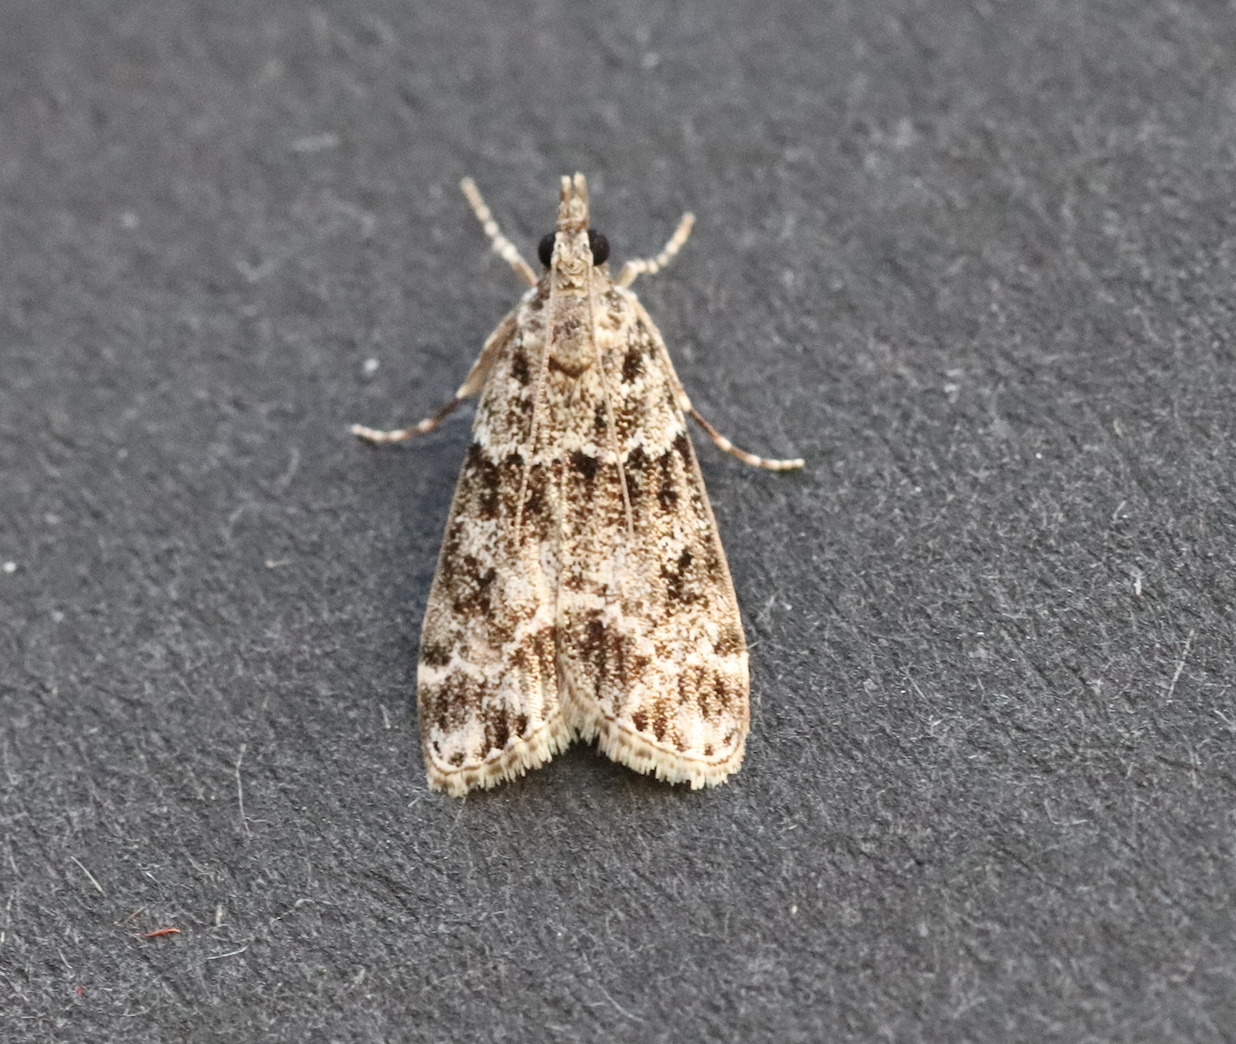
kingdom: Animalia
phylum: Arthropoda
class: Insecta
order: Lepidoptera
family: Crambidae
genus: Eudonia
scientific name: Eudonia mercurella
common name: Small grey
